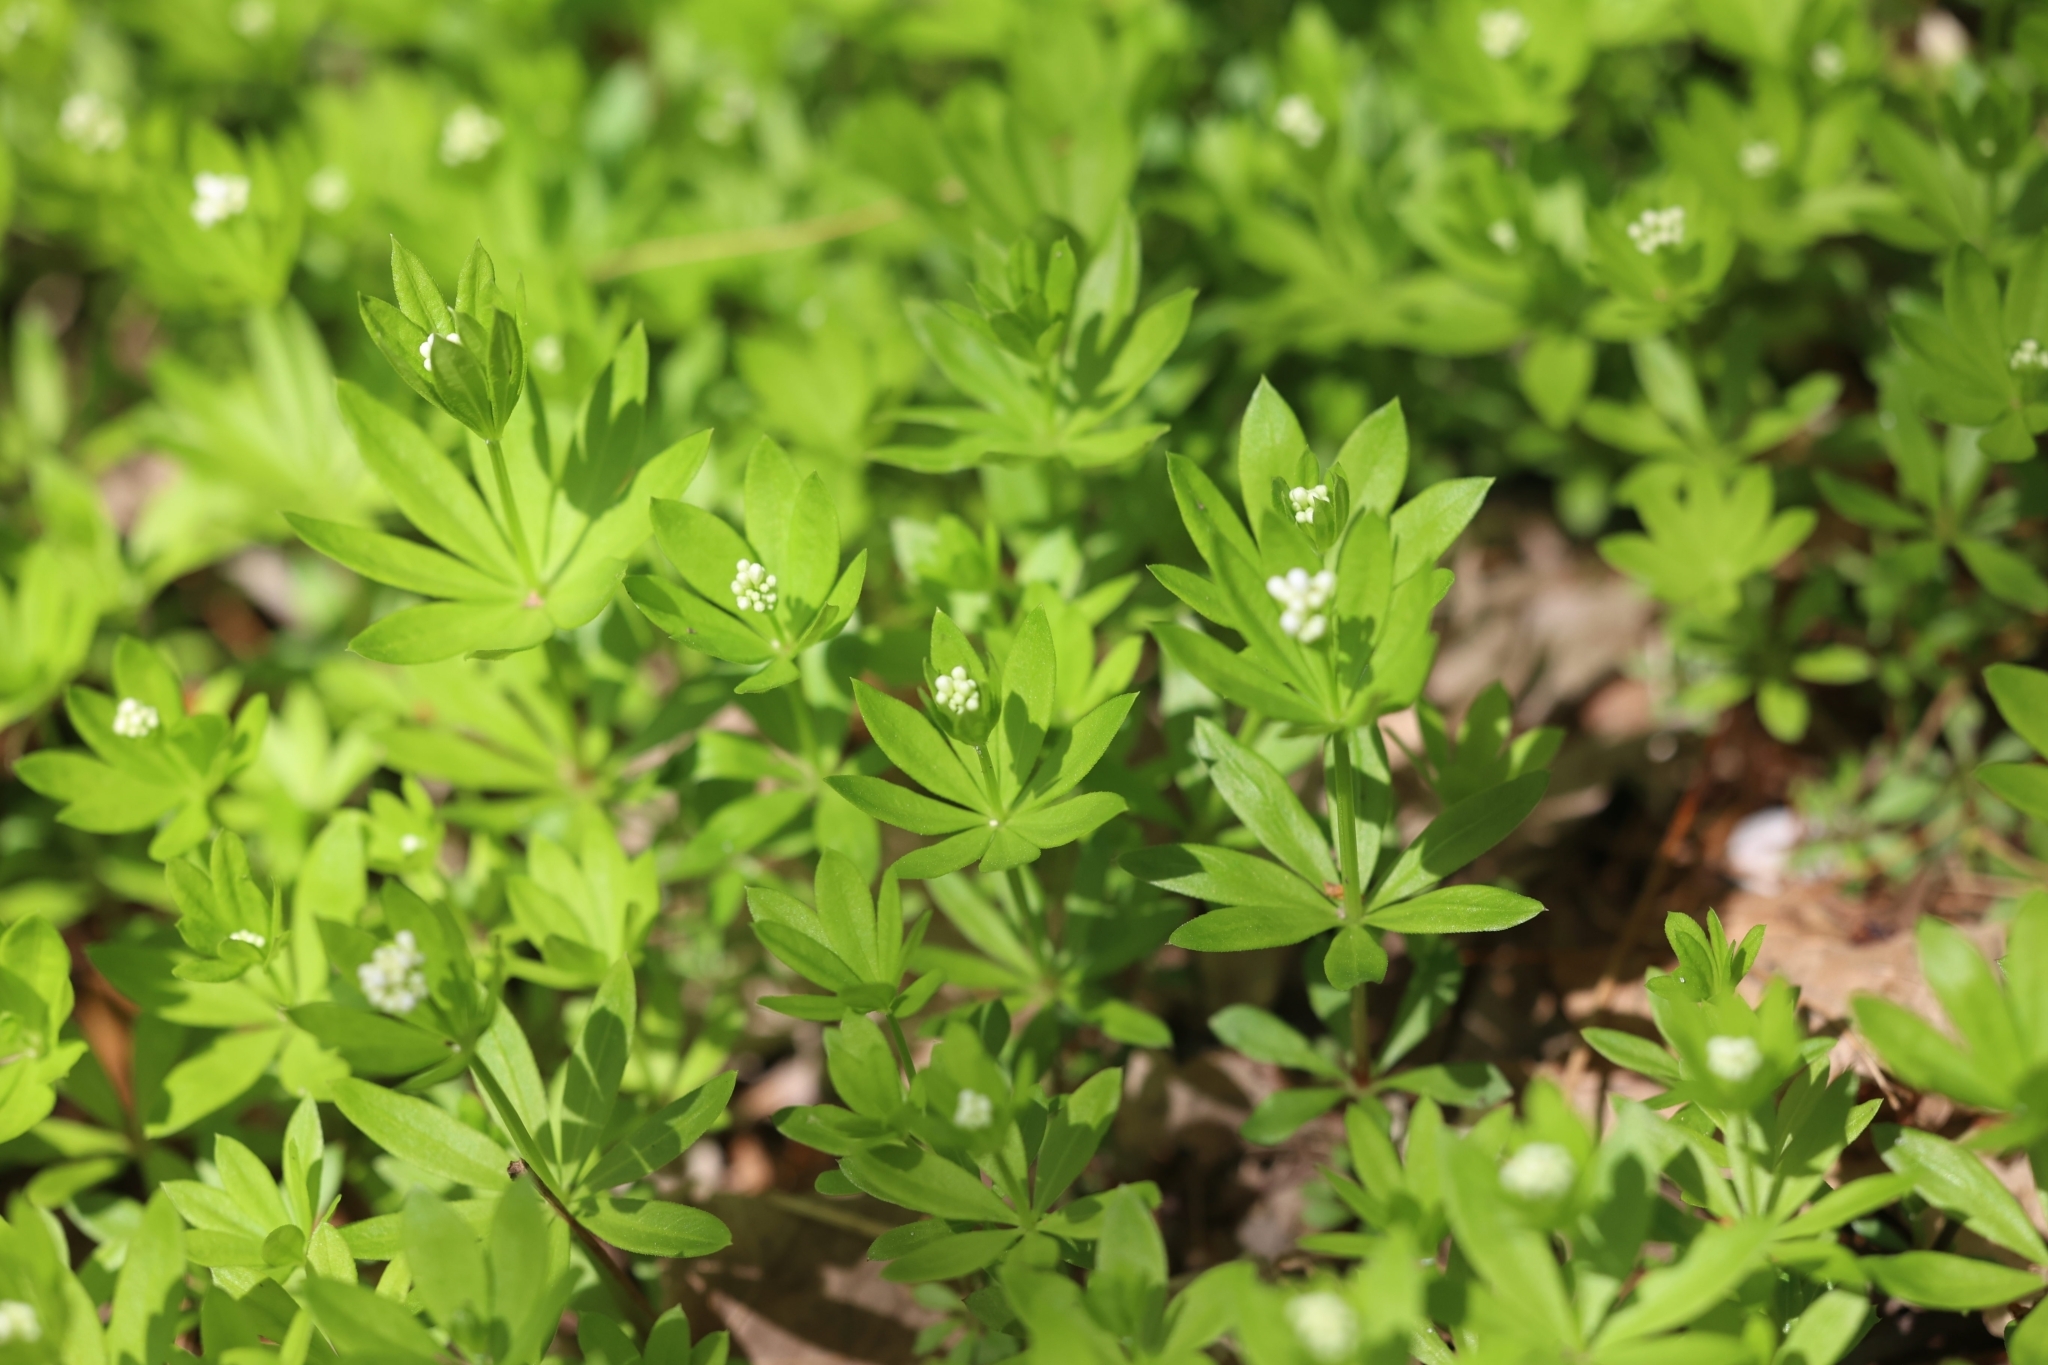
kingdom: Plantae
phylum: Tracheophyta
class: Magnoliopsida
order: Gentianales
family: Rubiaceae
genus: Galium
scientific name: Galium odoratum
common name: Sweet woodruff
